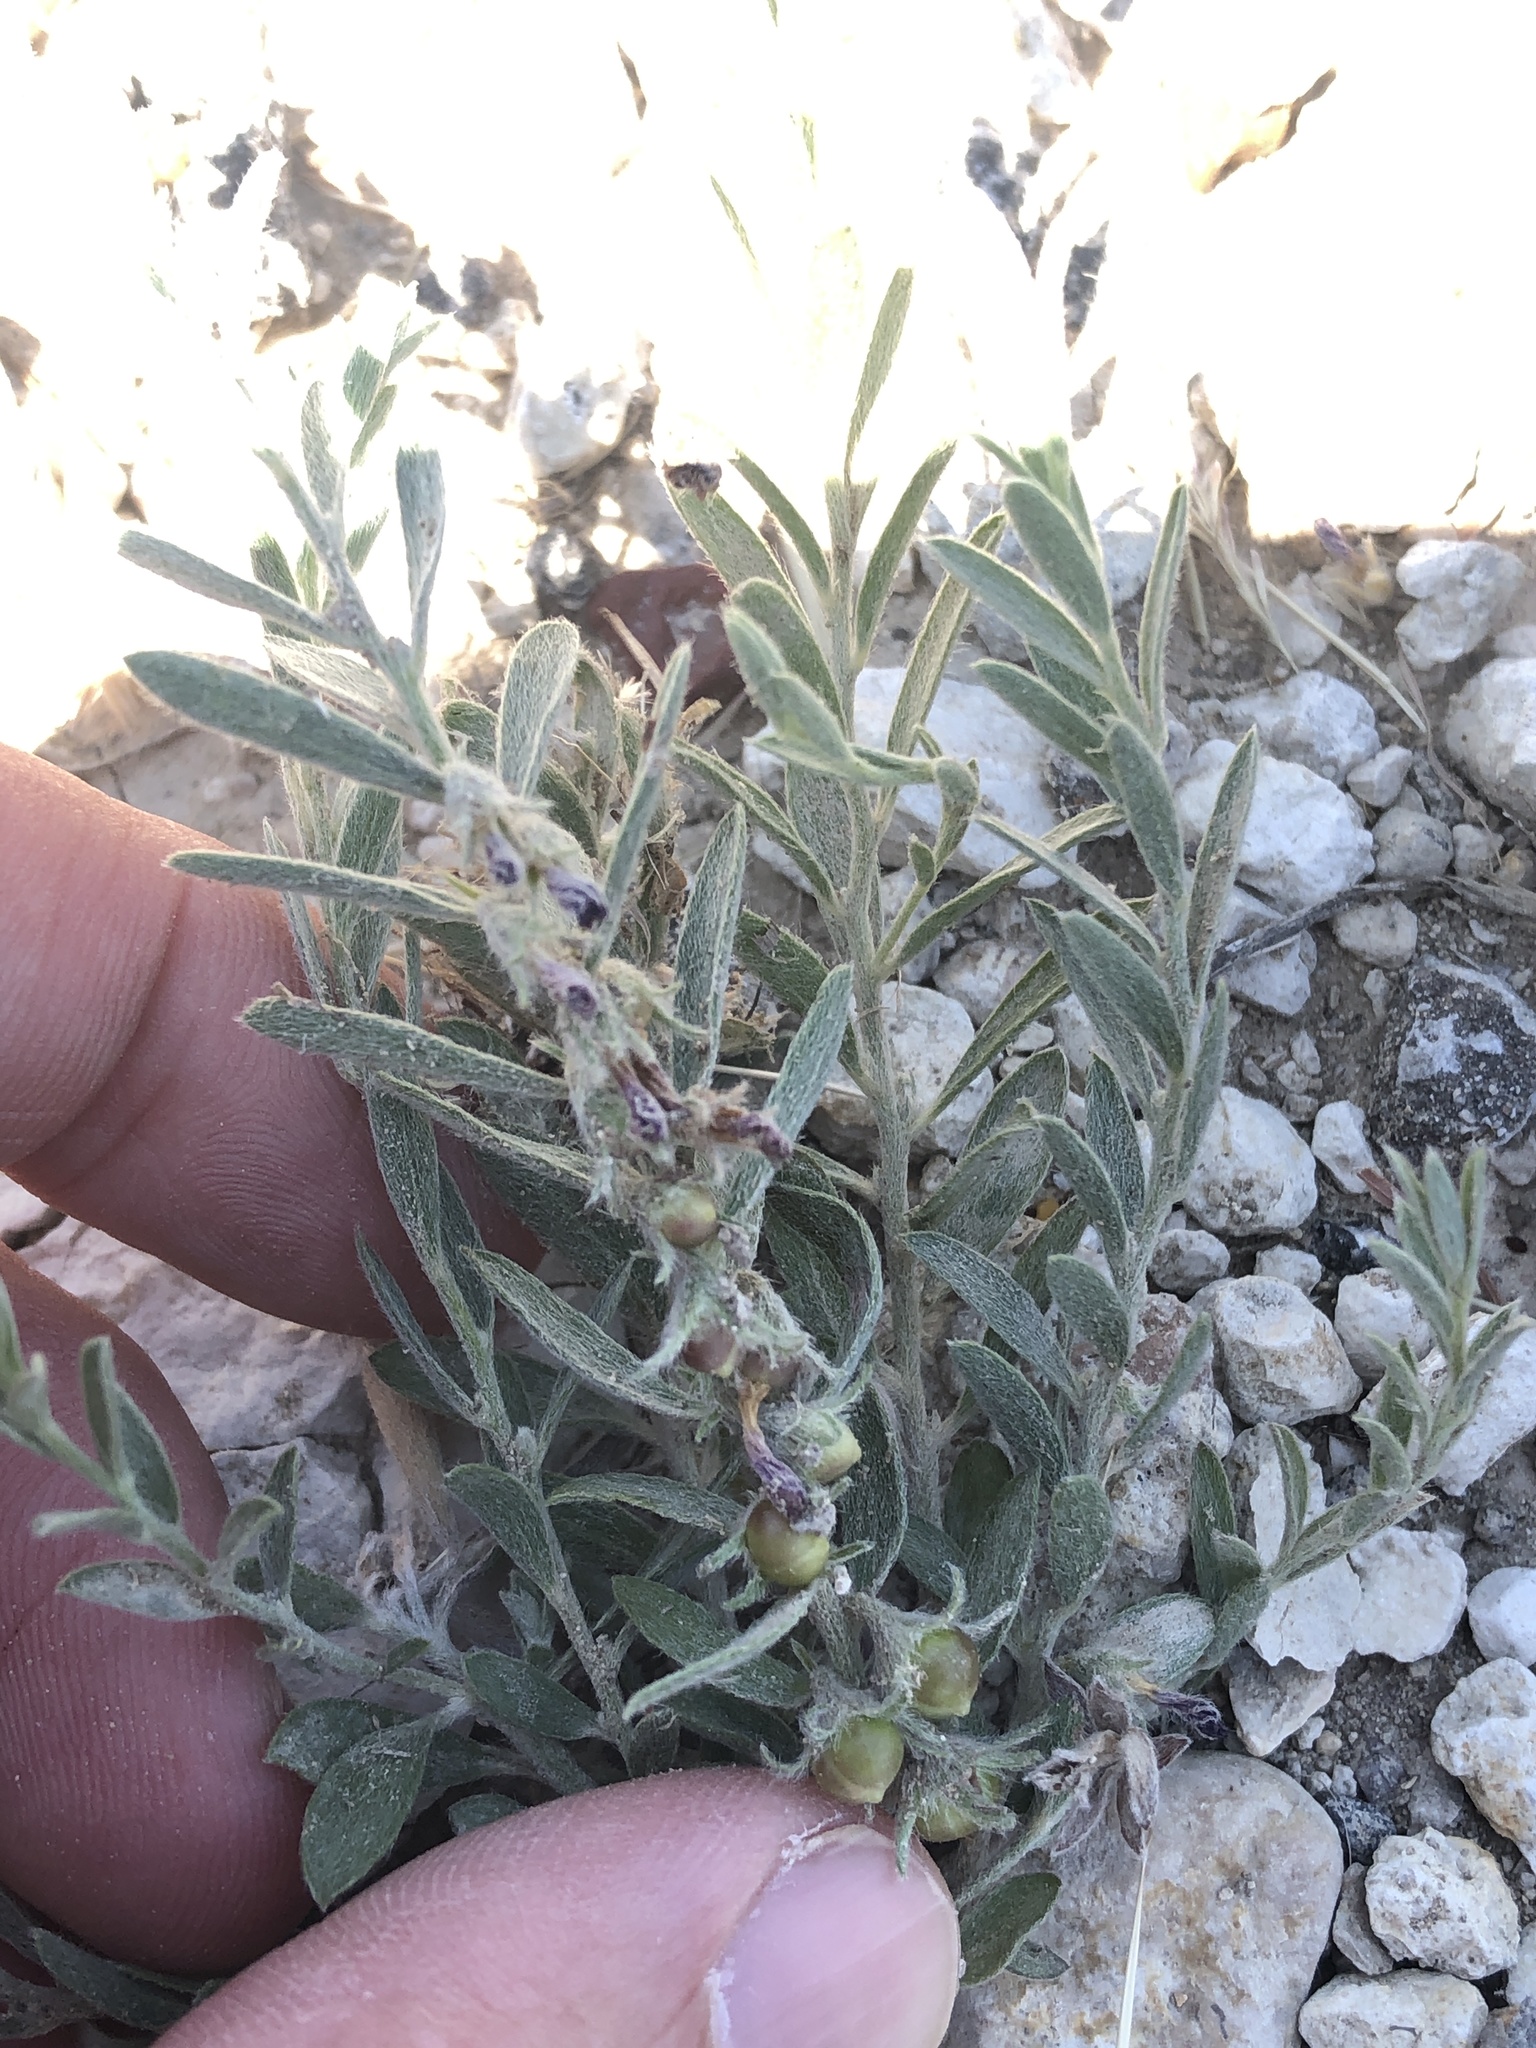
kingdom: Plantae
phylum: Tracheophyta
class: Magnoliopsida
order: Solanales
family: Convolvulaceae
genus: Evolvulus
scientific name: Evolvulus nuttallianus
